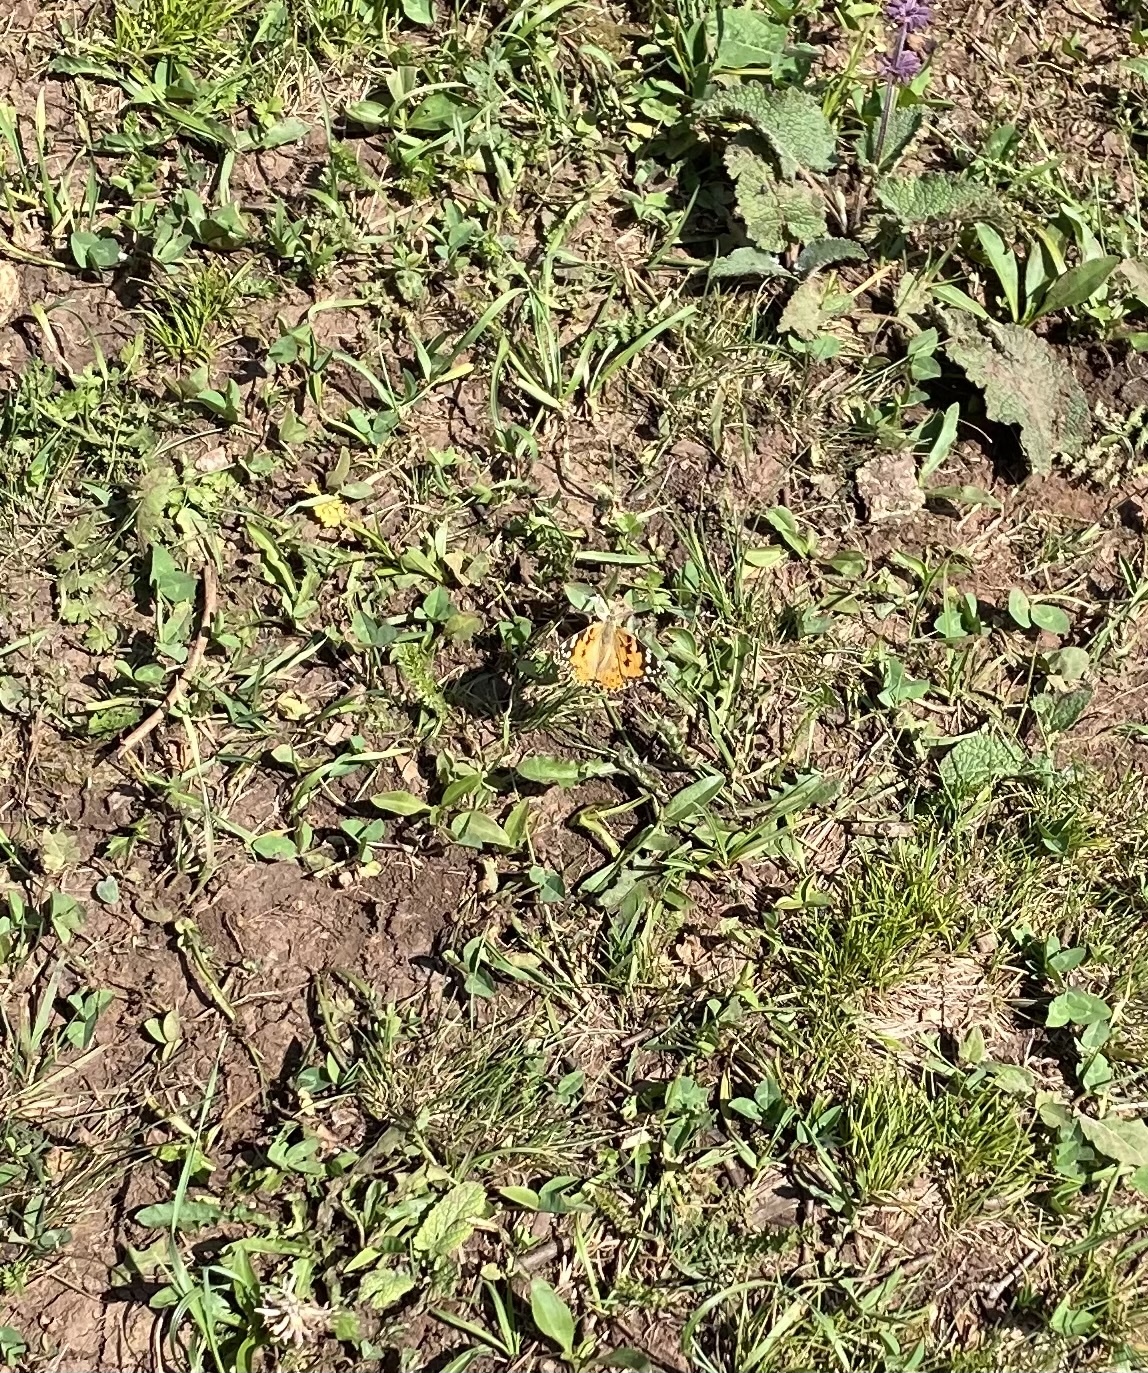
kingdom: Animalia
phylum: Arthropoda
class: Insecta
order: Lepidoptera
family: Nymphalidae
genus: Vanessa
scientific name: Vanessa cardui
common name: Painted lady
